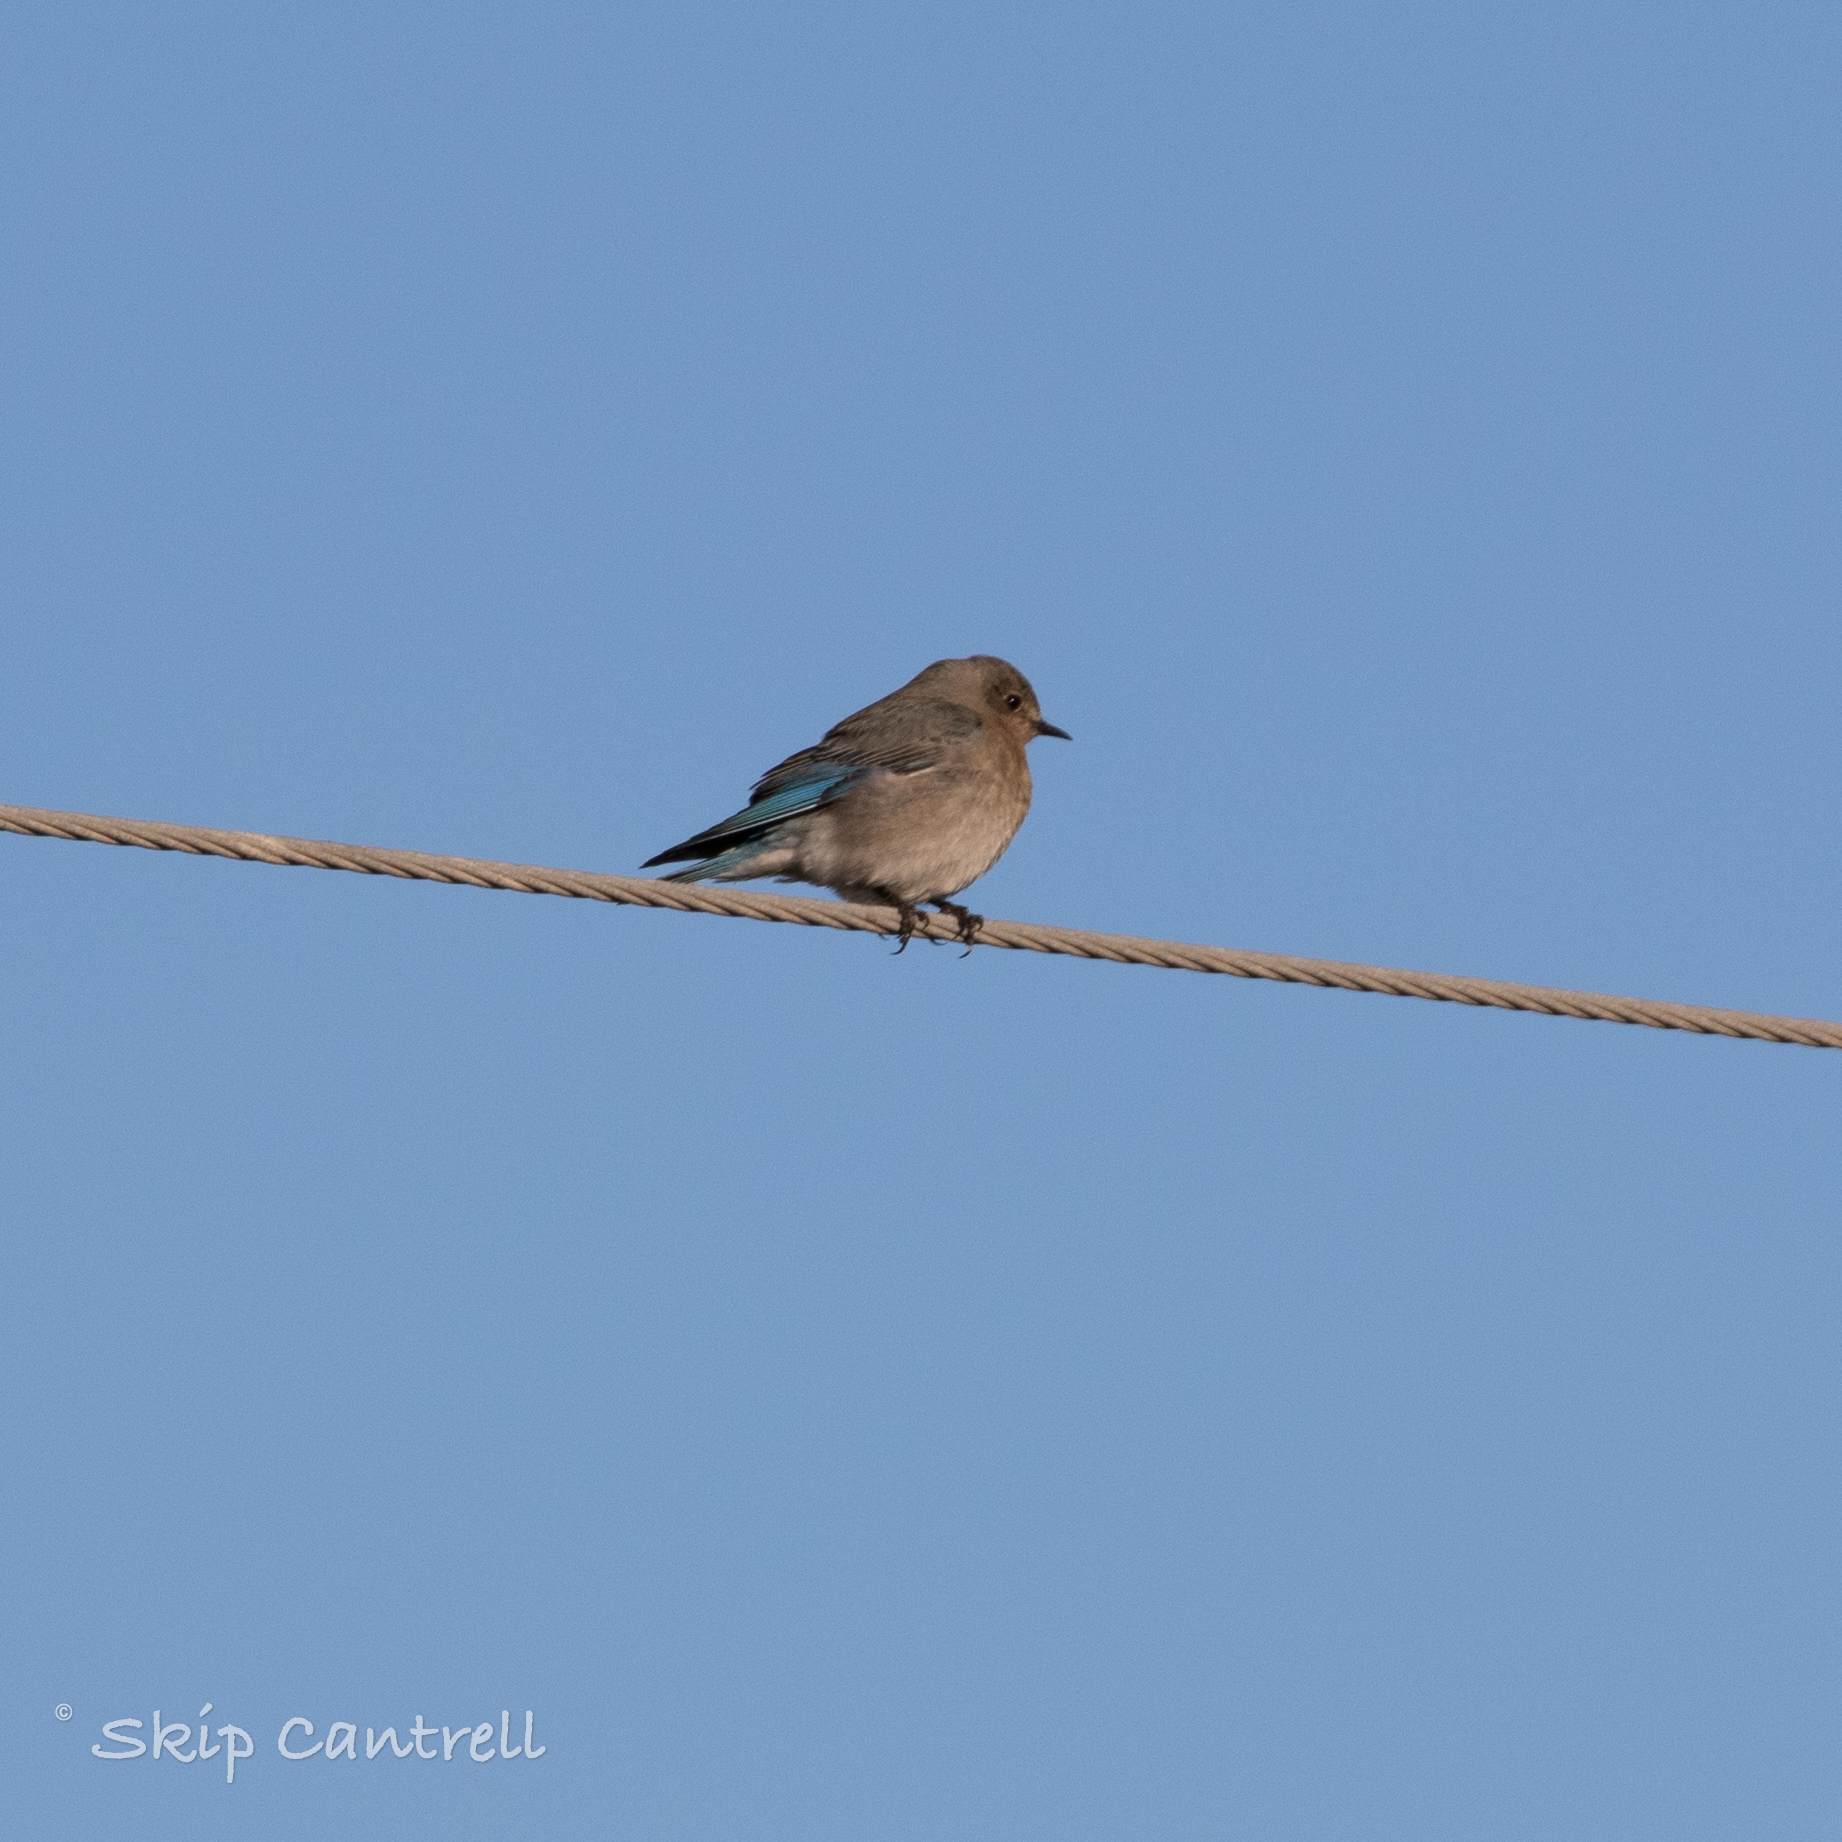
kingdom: Animalia
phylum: Chordata
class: Aves
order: Passeriformes
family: Turdidae
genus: Sialia
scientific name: Sialia currucoides
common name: Mountain bluebird
